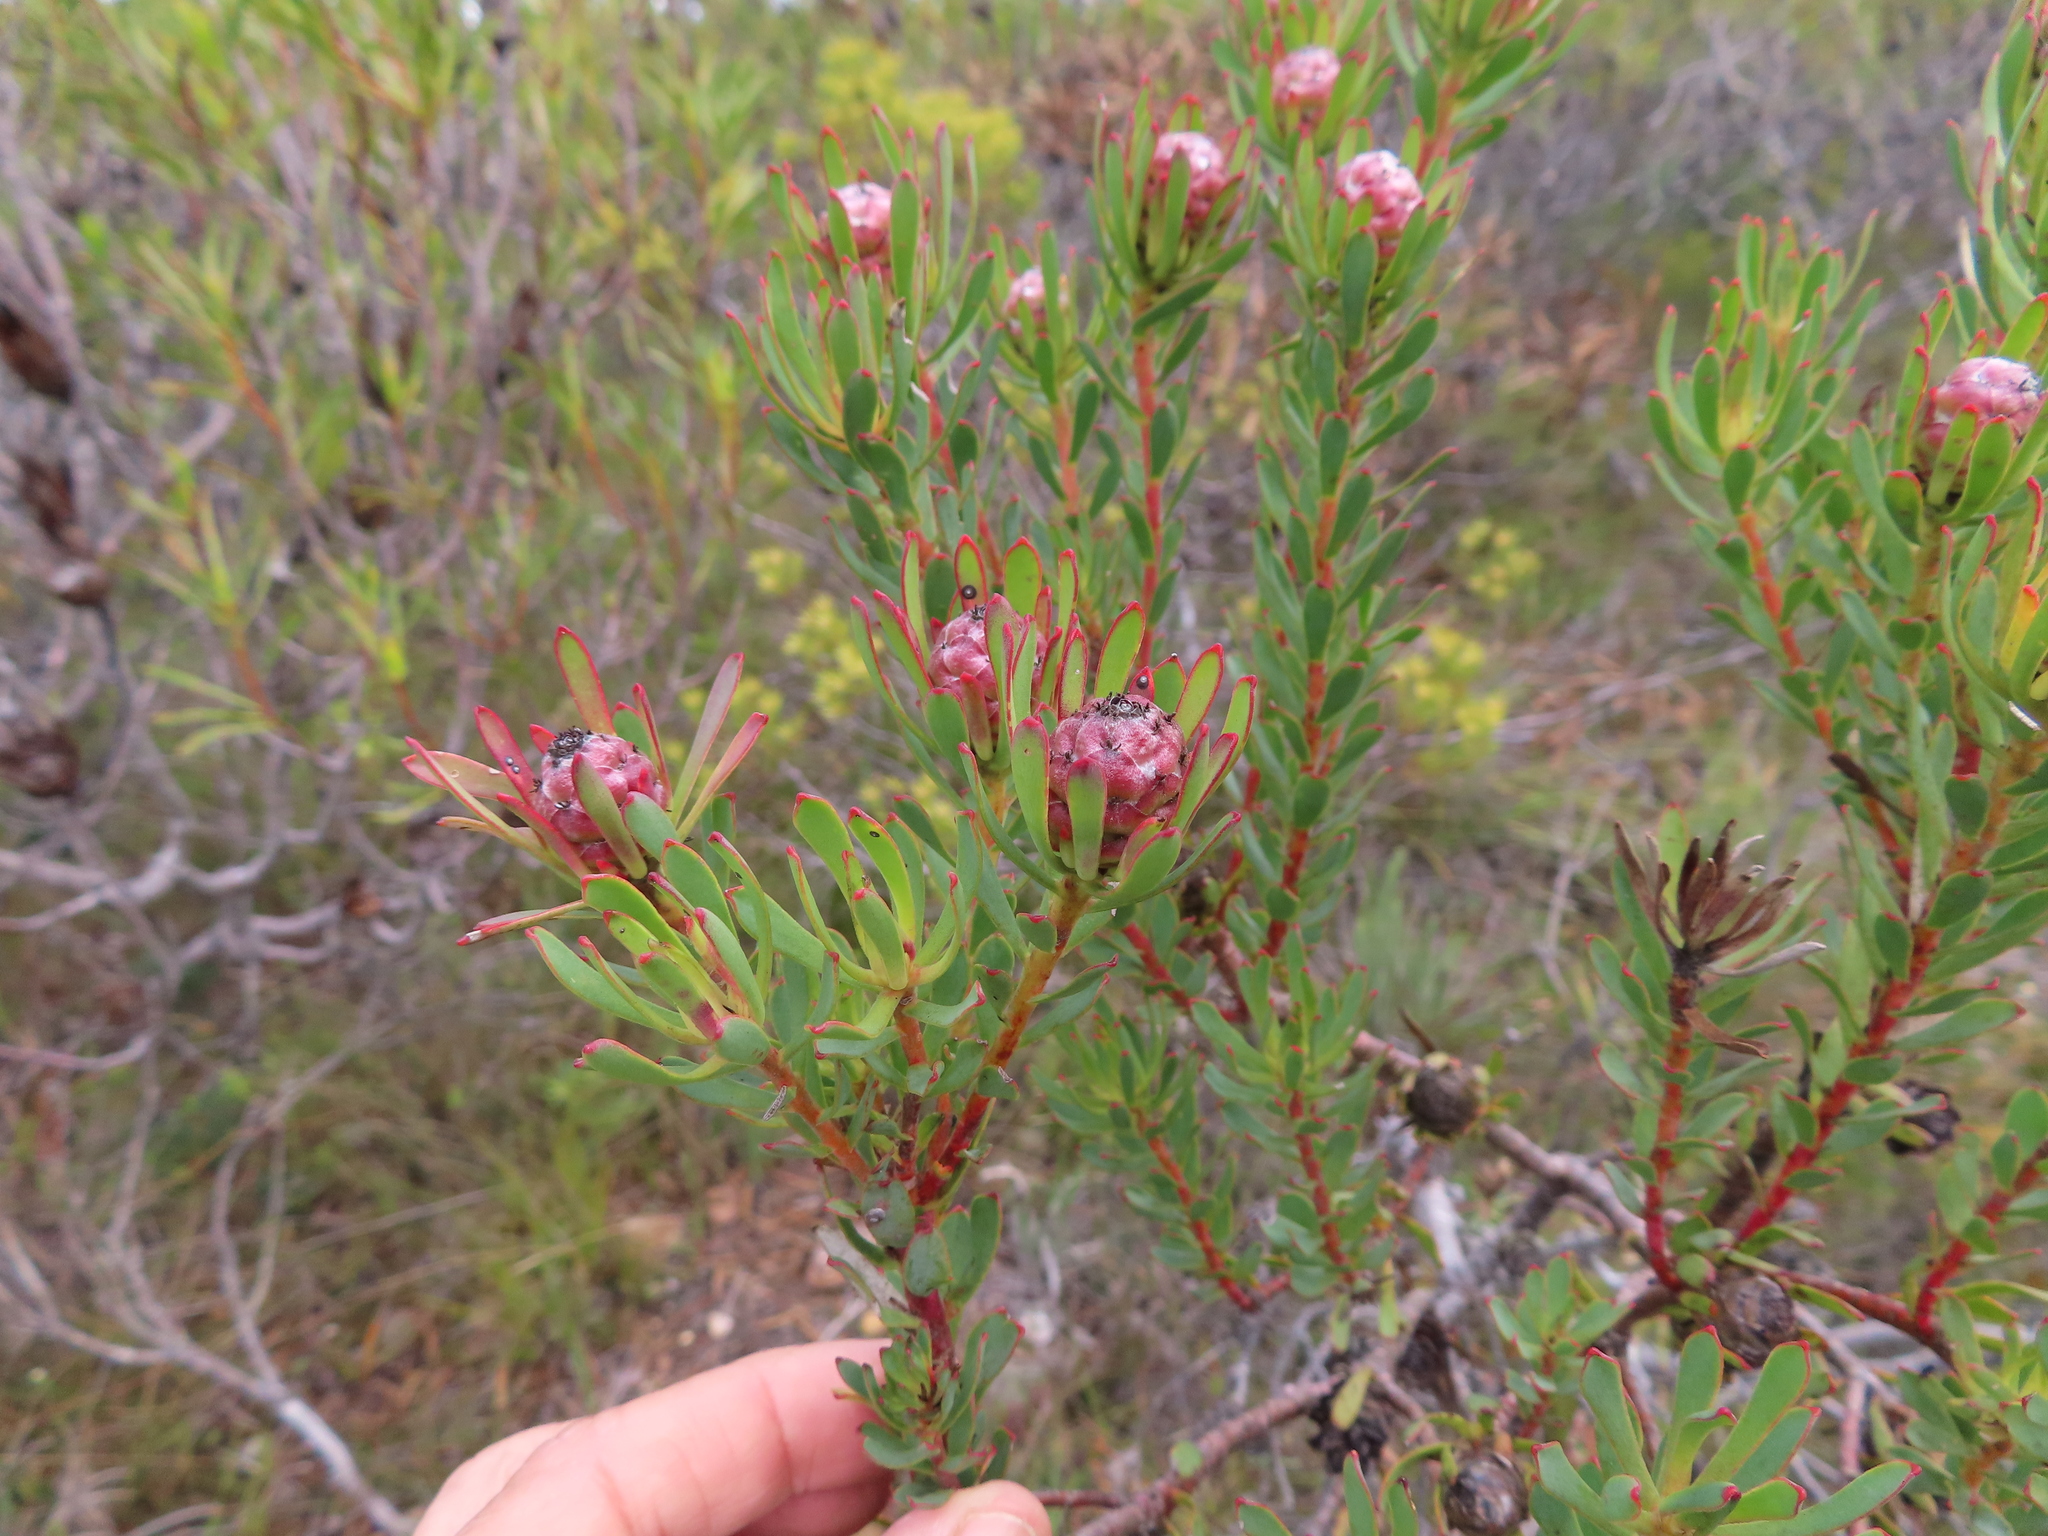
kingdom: Plantae
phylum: Tracheophyta
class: Magnoliopsida
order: Proteales
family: Proteaceae
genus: Leucadendron
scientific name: Leucadendron modestum
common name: Rough-leaf conebush
